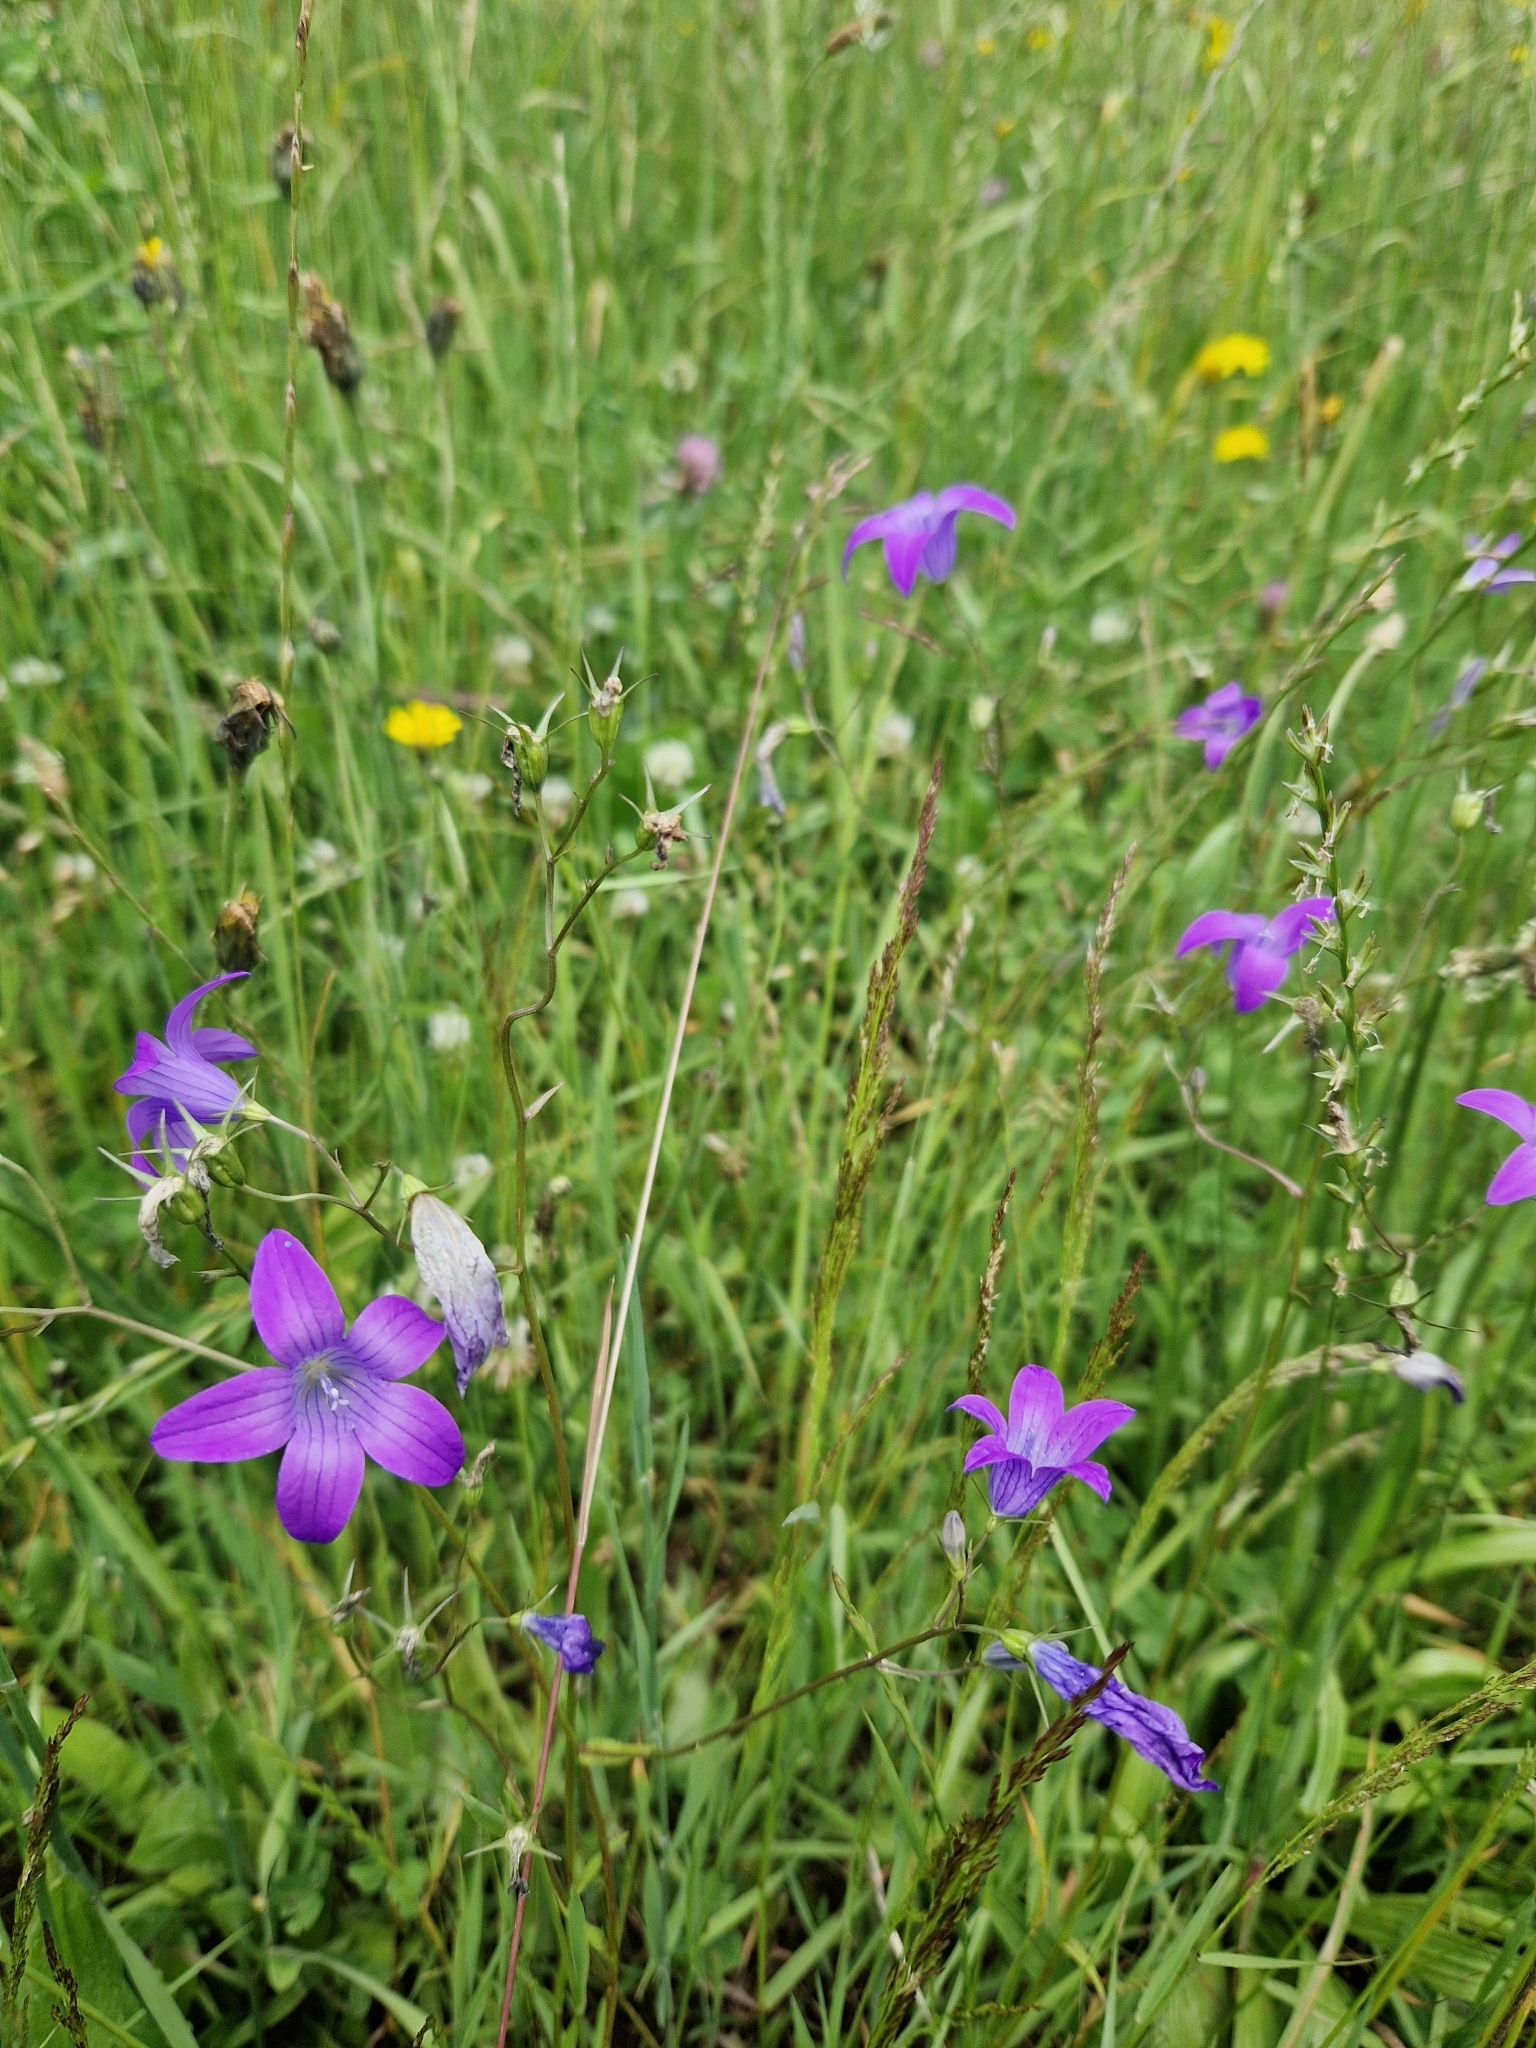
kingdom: Plantae
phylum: Tracheophyta
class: Magnoliopsida
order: Asterales
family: Campanulaceae
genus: Campanula
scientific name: Campanula patula
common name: Spreading bellflower
